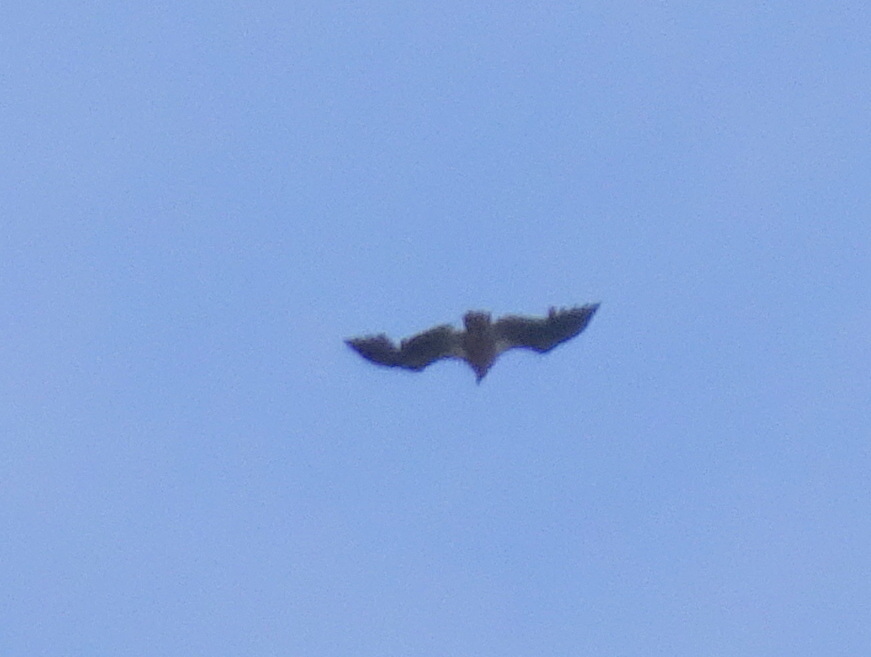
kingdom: Animalia
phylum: Chordata
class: Aves
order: Accipitriformes
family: Accipitridae
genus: Haliaeetus
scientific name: Haliaeetus leucocephalus
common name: Bald eagle
